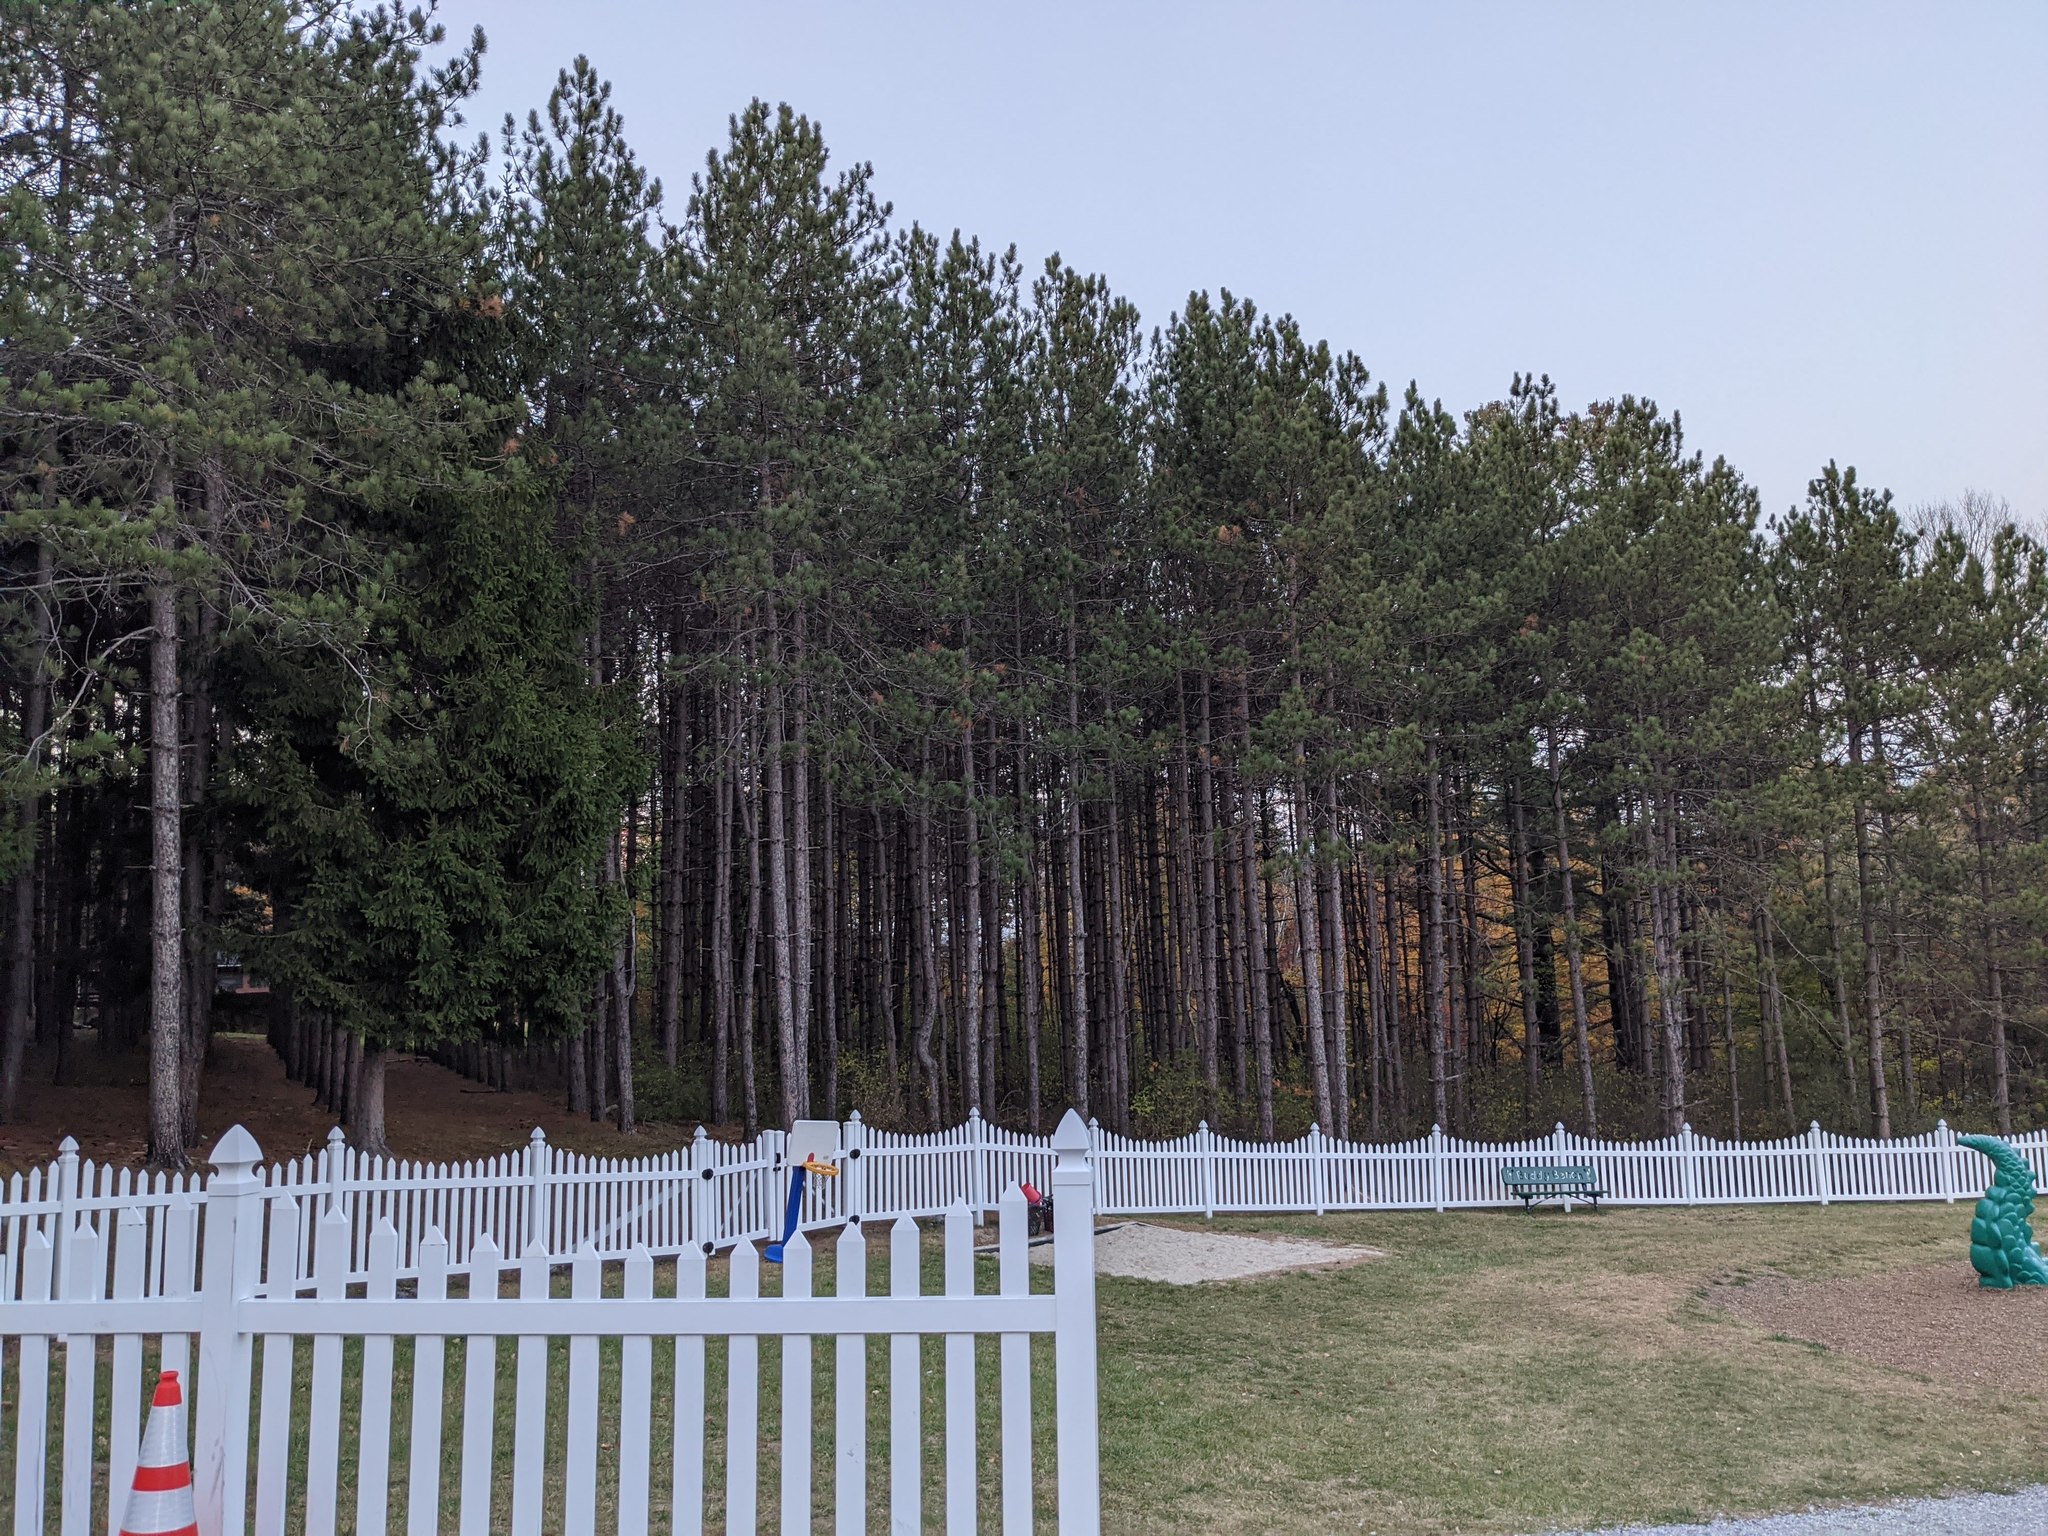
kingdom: Plantae
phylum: Tracheophyta
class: Pinopsida
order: Pinales
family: Pinaceae
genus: Pinus
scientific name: Pinus resinosa
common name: Norway pine
